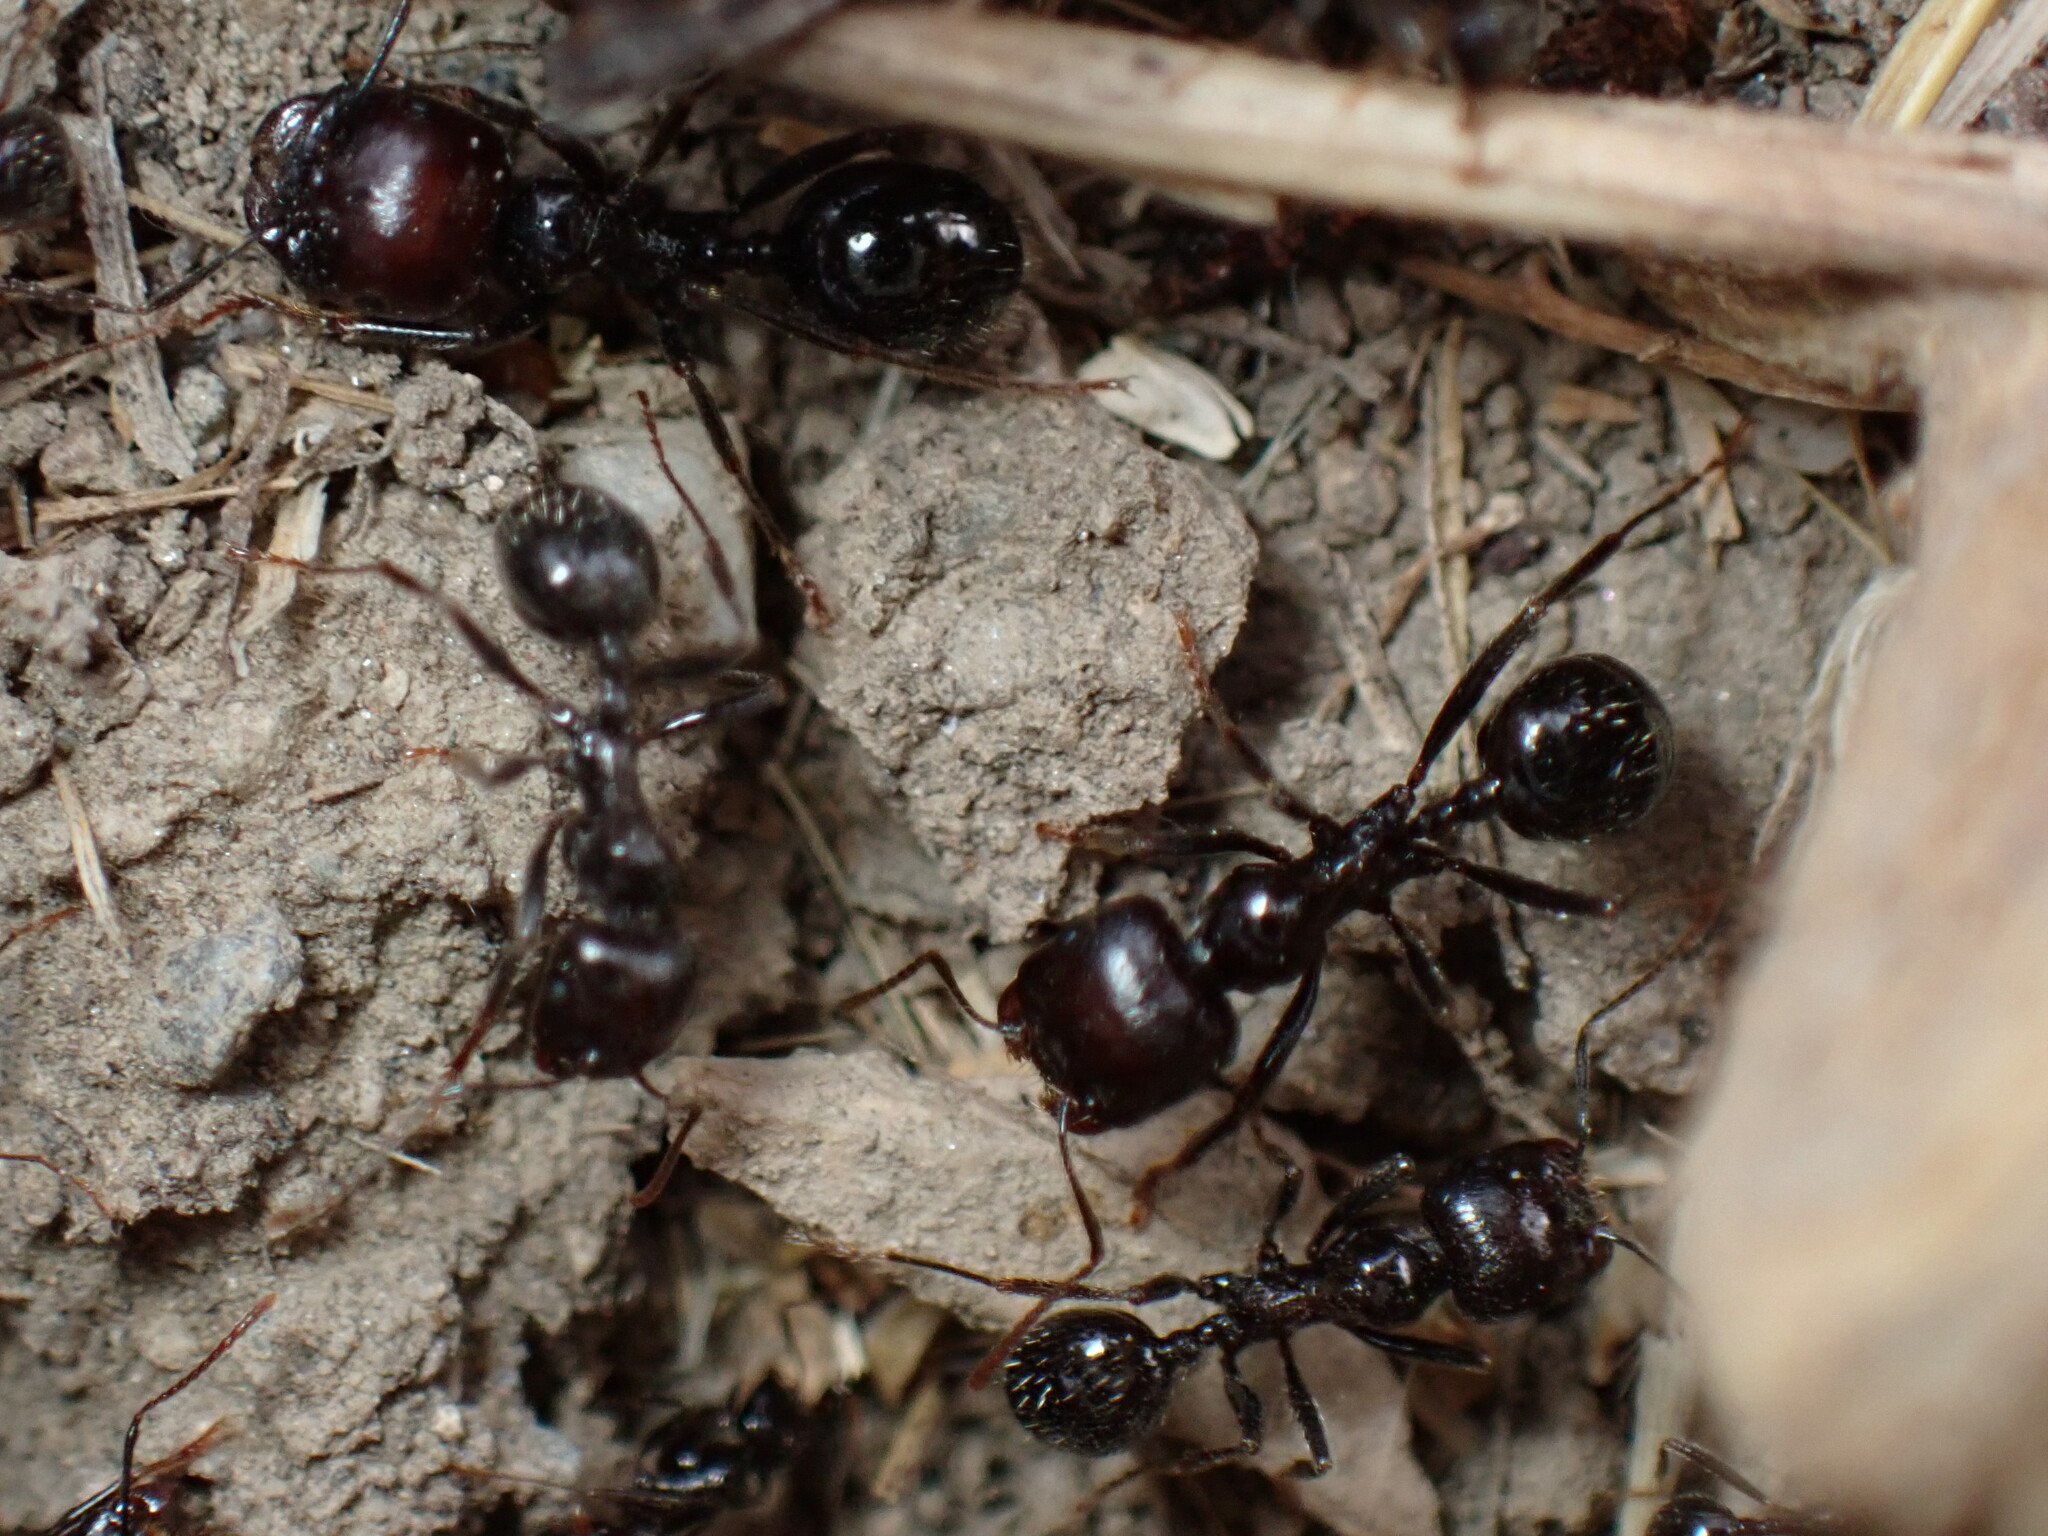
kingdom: Animalia
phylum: Arthropoda
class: Insecta
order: Hymenoptera
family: Formicidae
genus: Messor
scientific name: Messor barbarus
